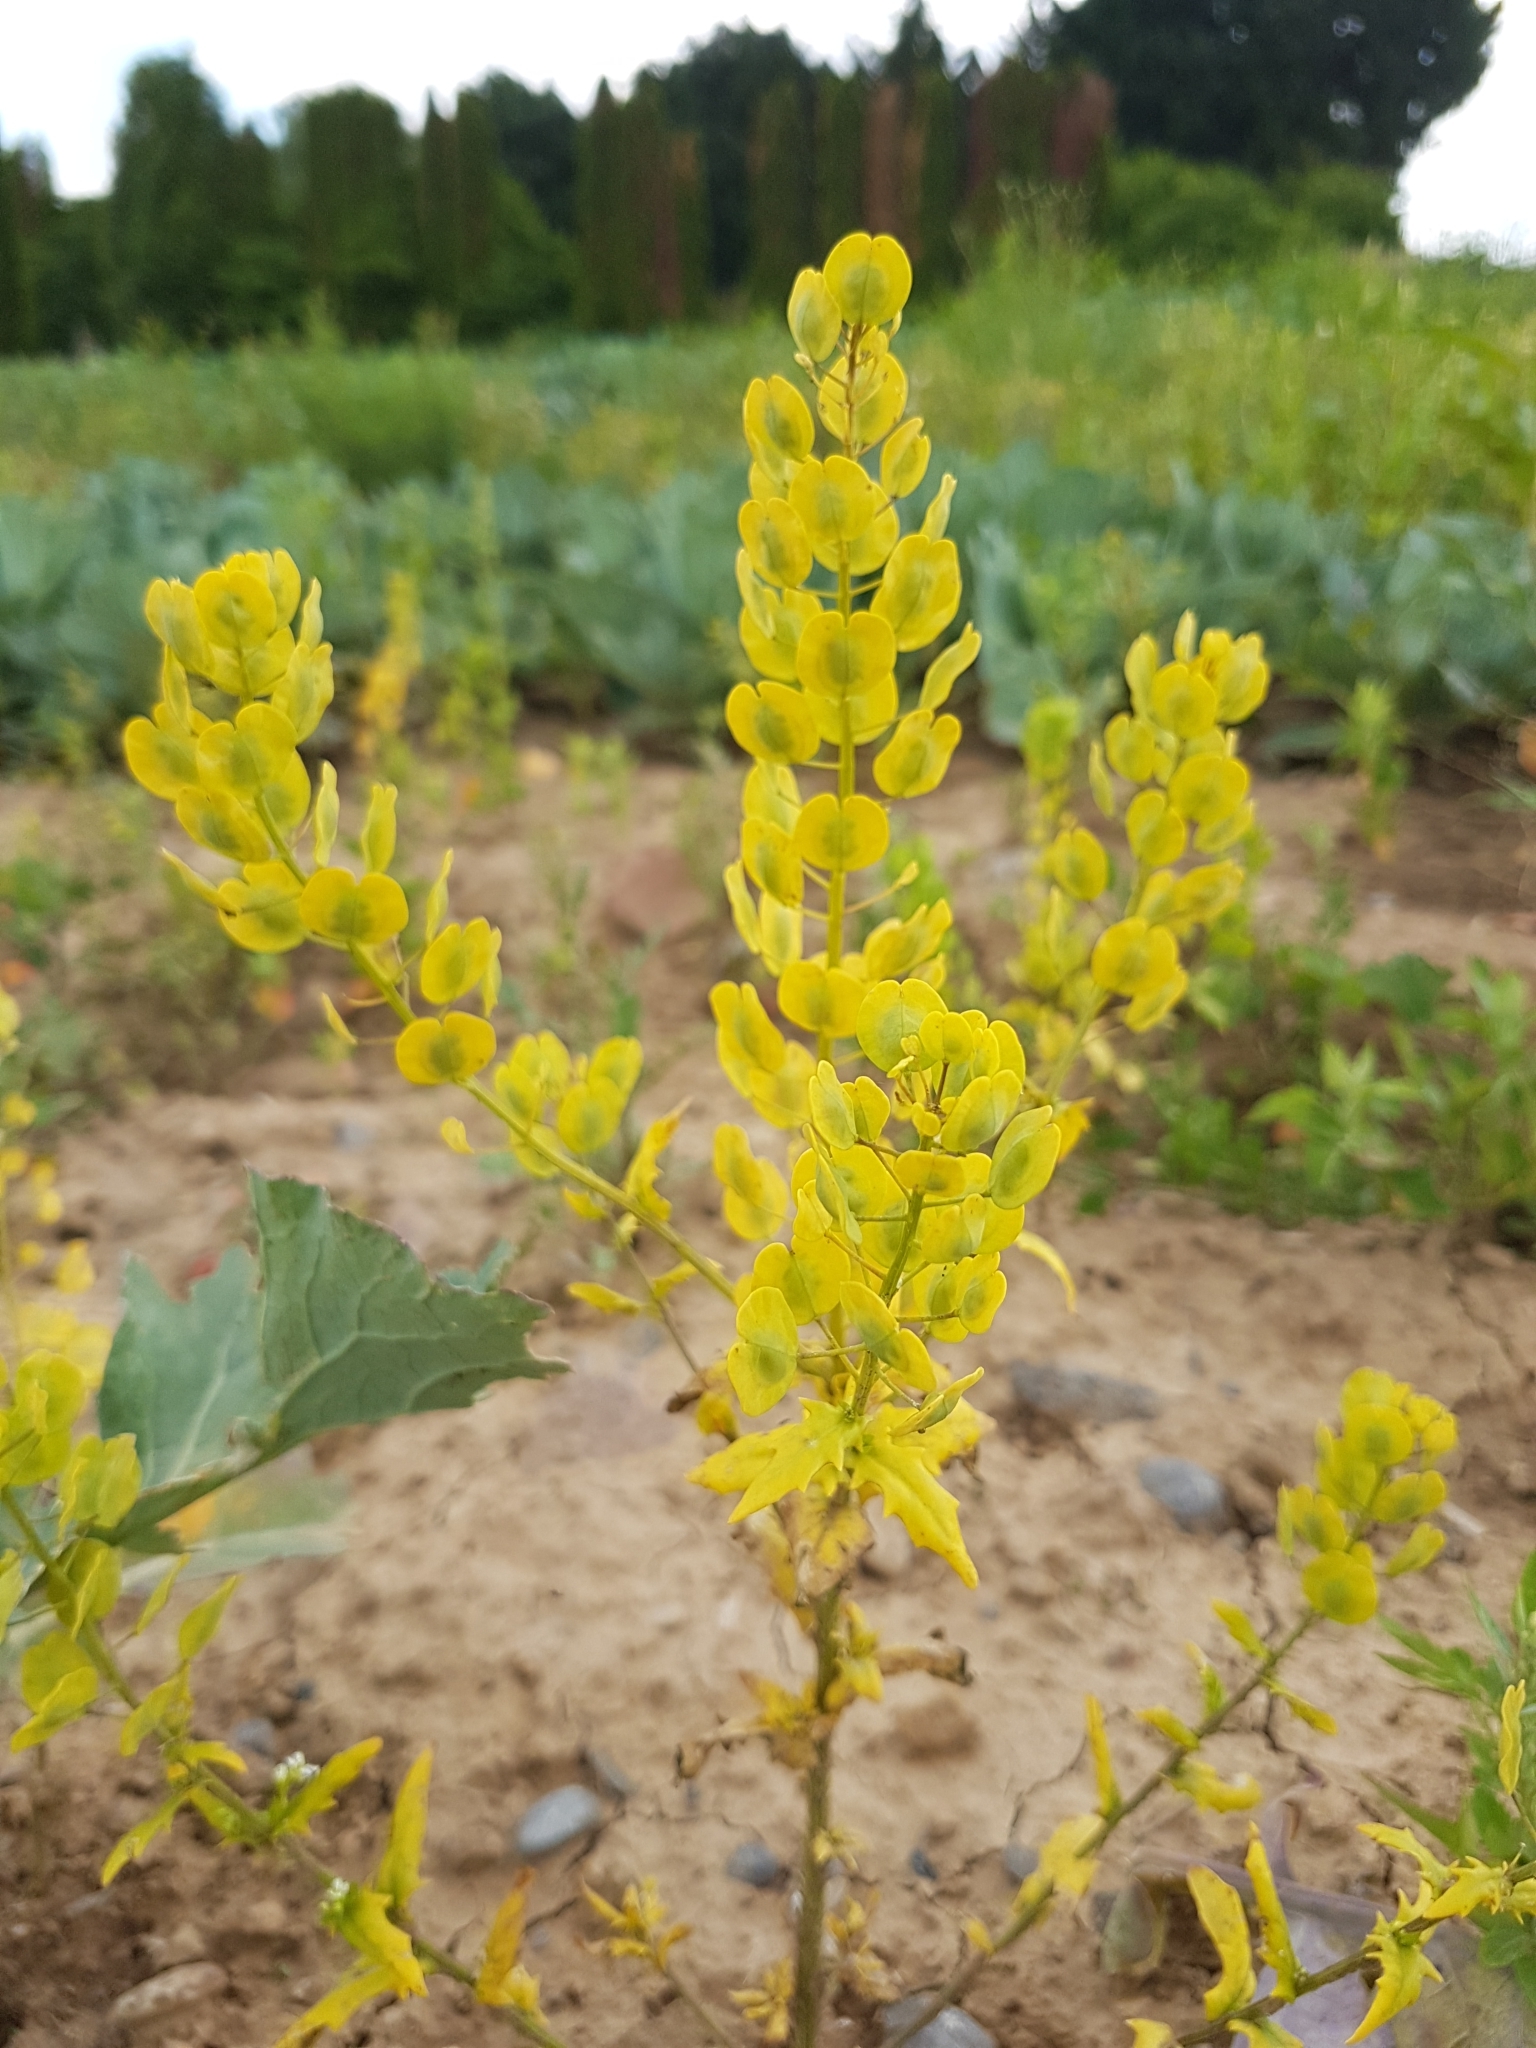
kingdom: Plantae
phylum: Tracheophyta
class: Magnoliopsida
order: Brassicales
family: Brassicaceae
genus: Thlaspi
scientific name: Thlaspi arvense
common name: Field pennycress
